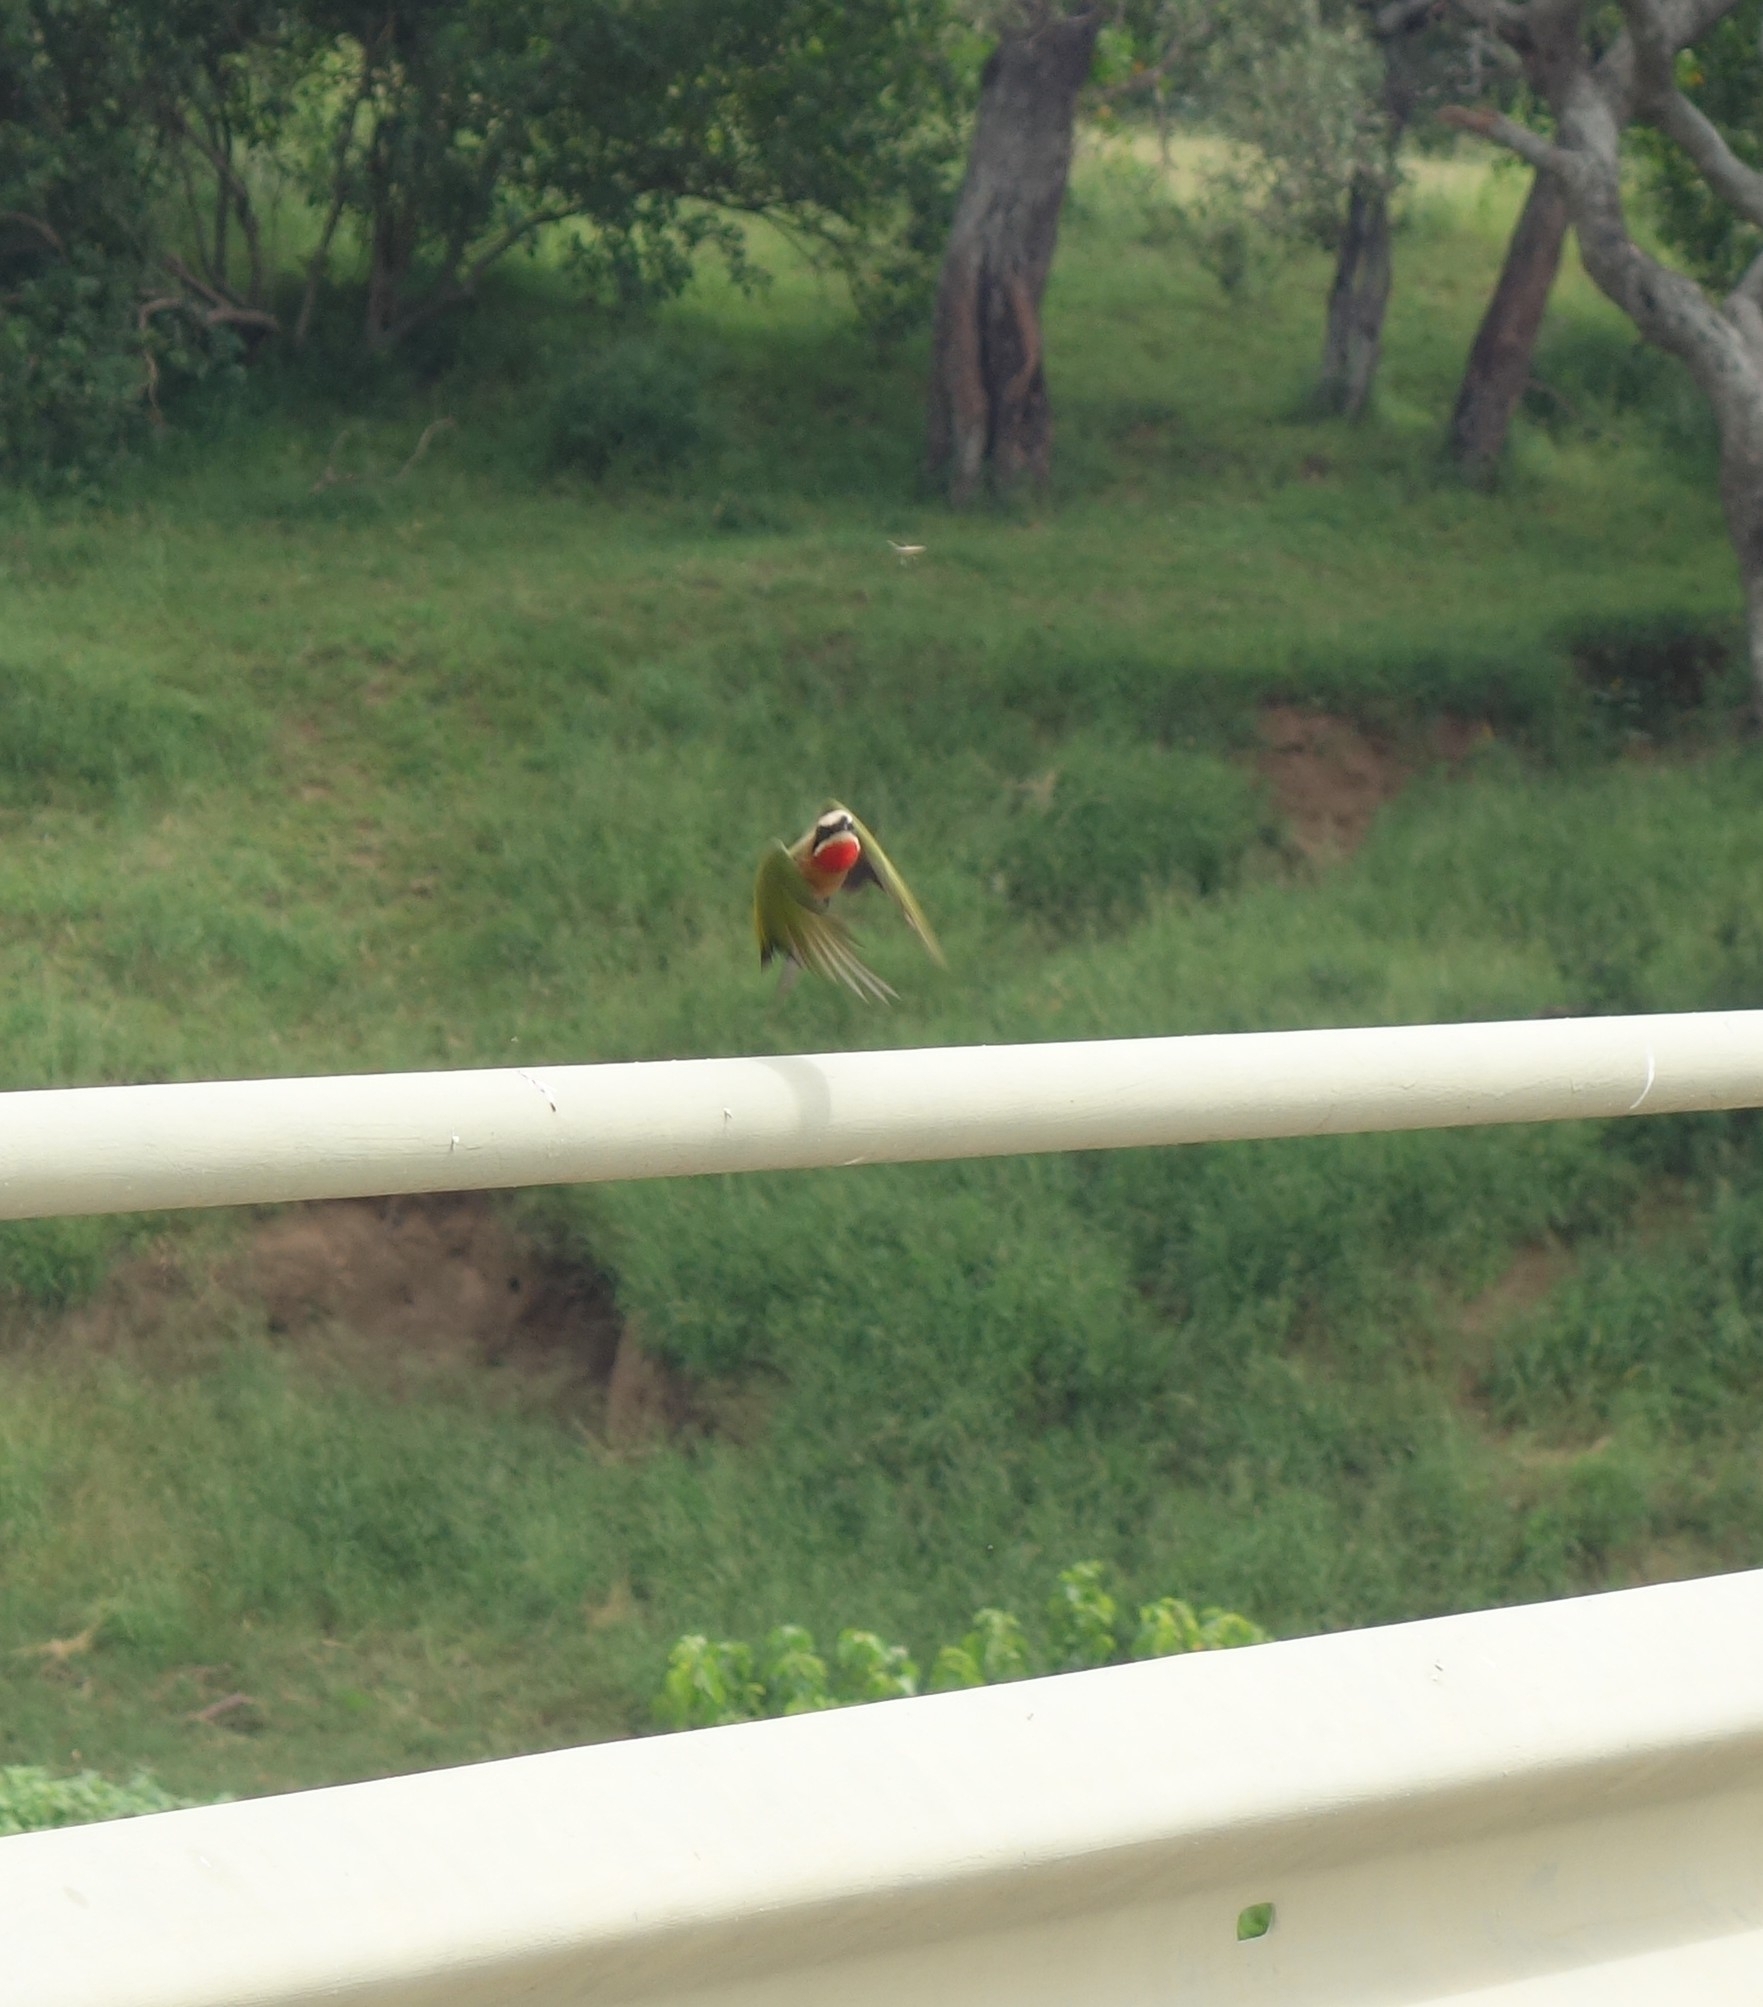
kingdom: Animalia
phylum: Chordata
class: Aves
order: Coraciiformes
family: Meropidae
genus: Merops
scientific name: Merops bullockoides
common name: White-fronted bee-eater
